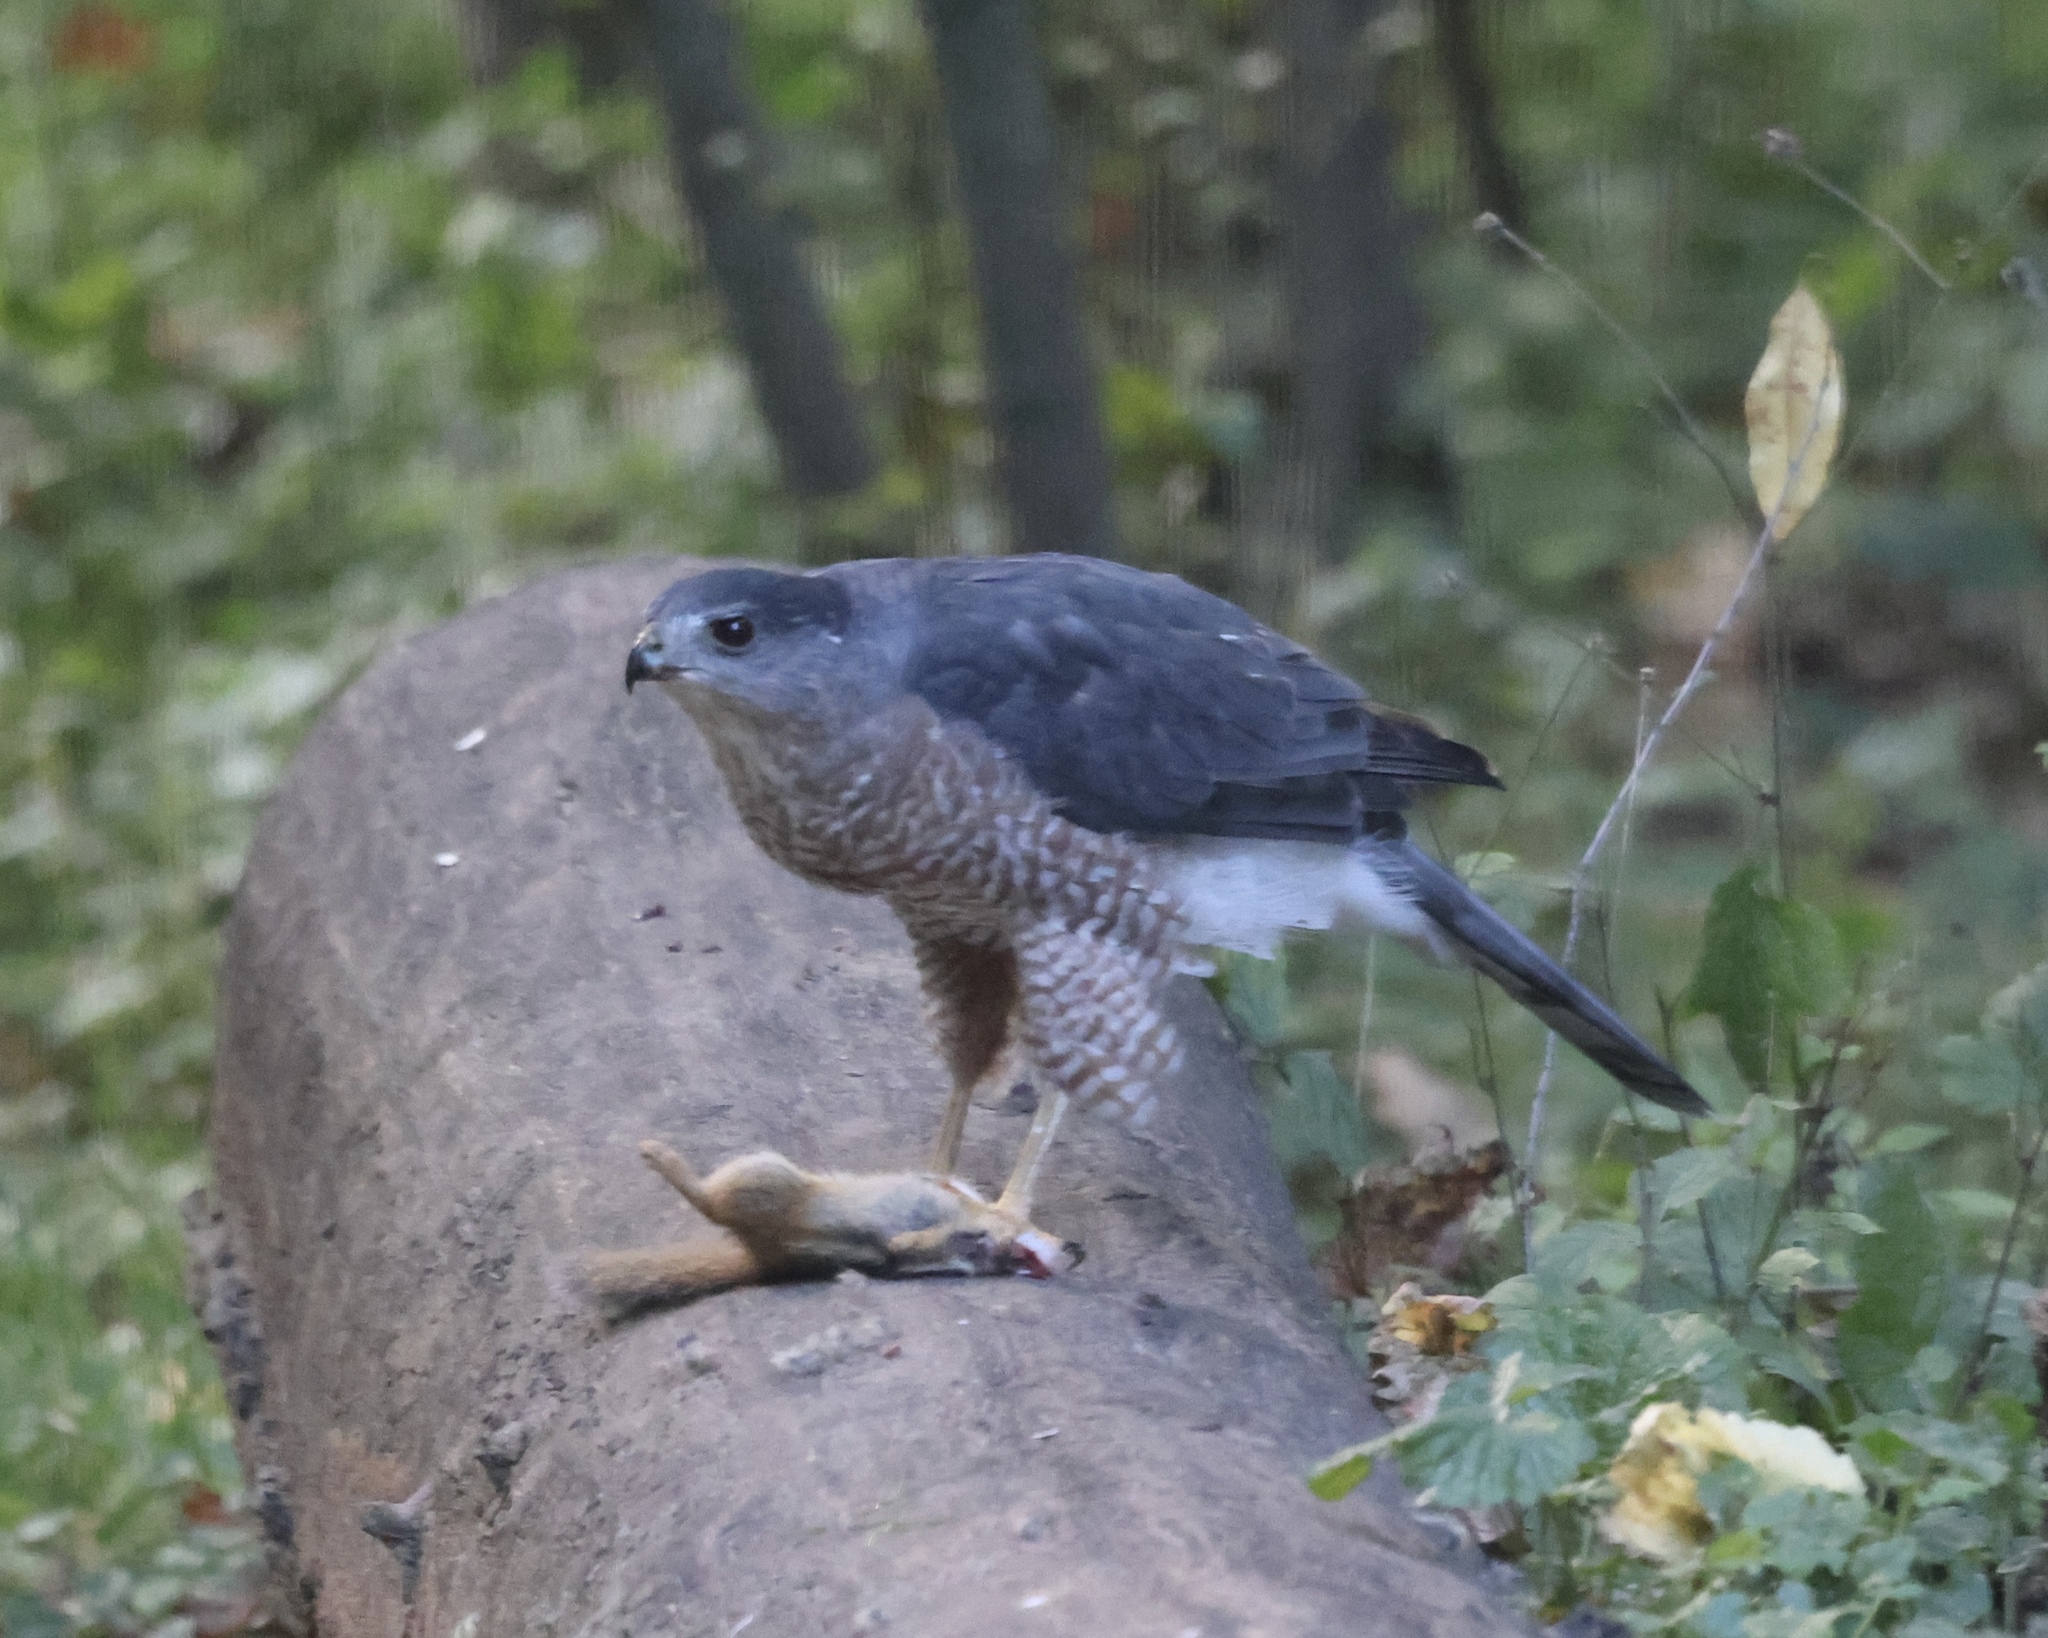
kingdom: Animalia
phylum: Chordata
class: Mammalia
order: Rodentia
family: Sciuridae
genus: Tamias
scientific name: Tamias striatus
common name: Eastern chipmunk
